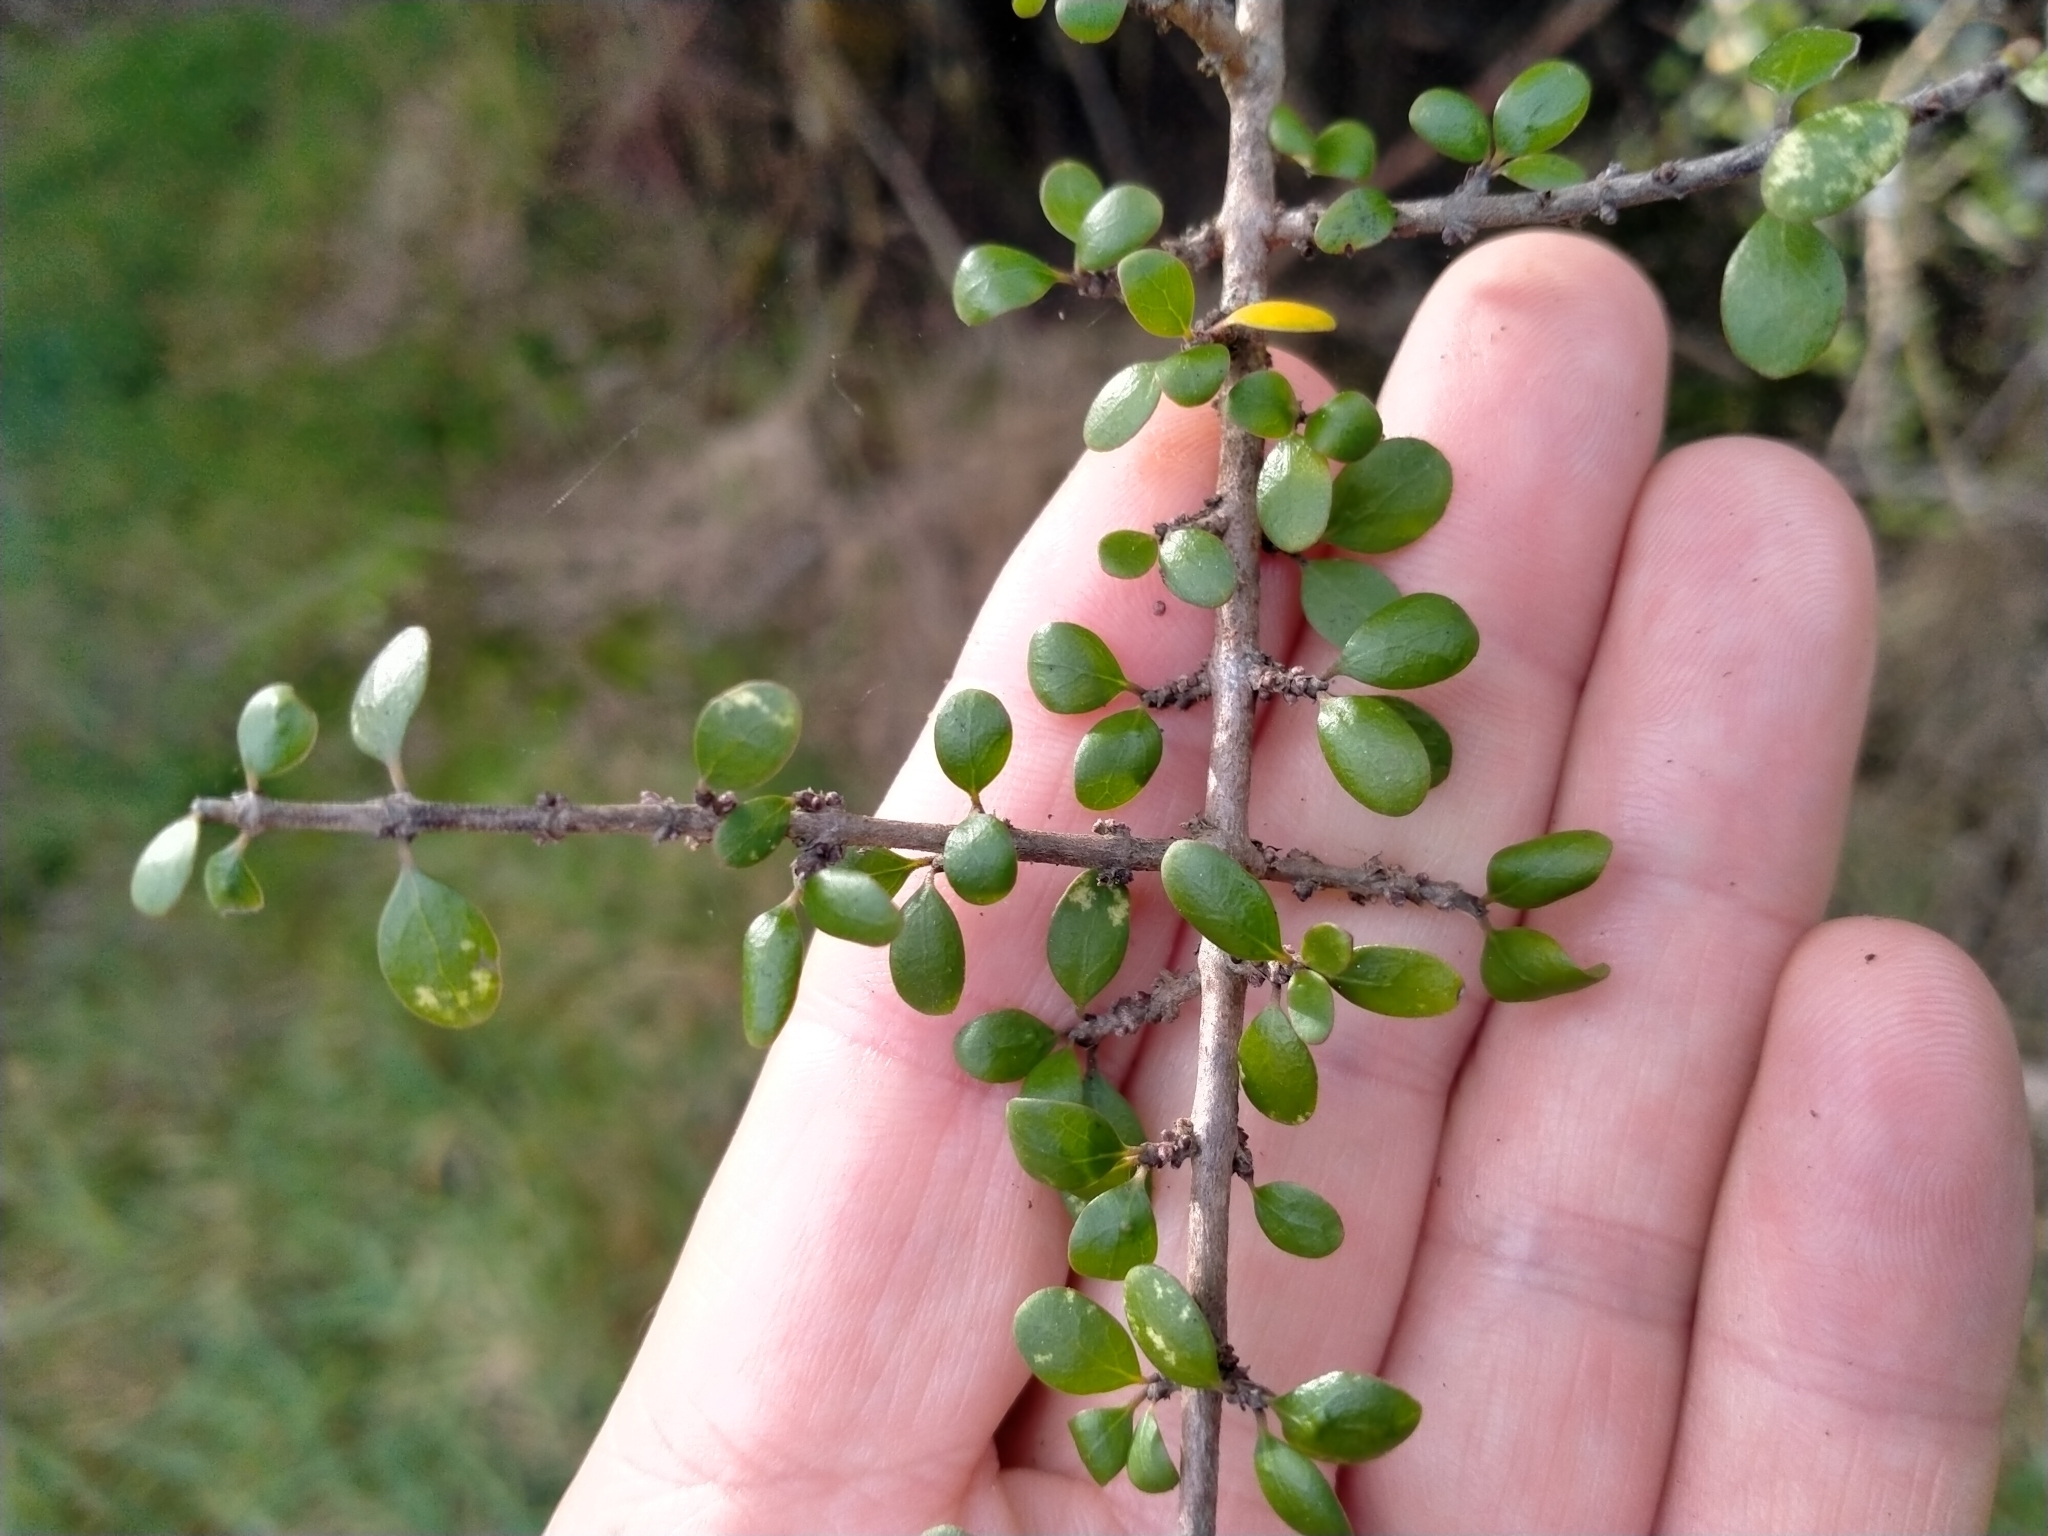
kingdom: Plantae
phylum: Tracheophyta
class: Magnoliopsida
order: Gentianales
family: Rubiaceae
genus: Coprosma
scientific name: Coprosma wallii
